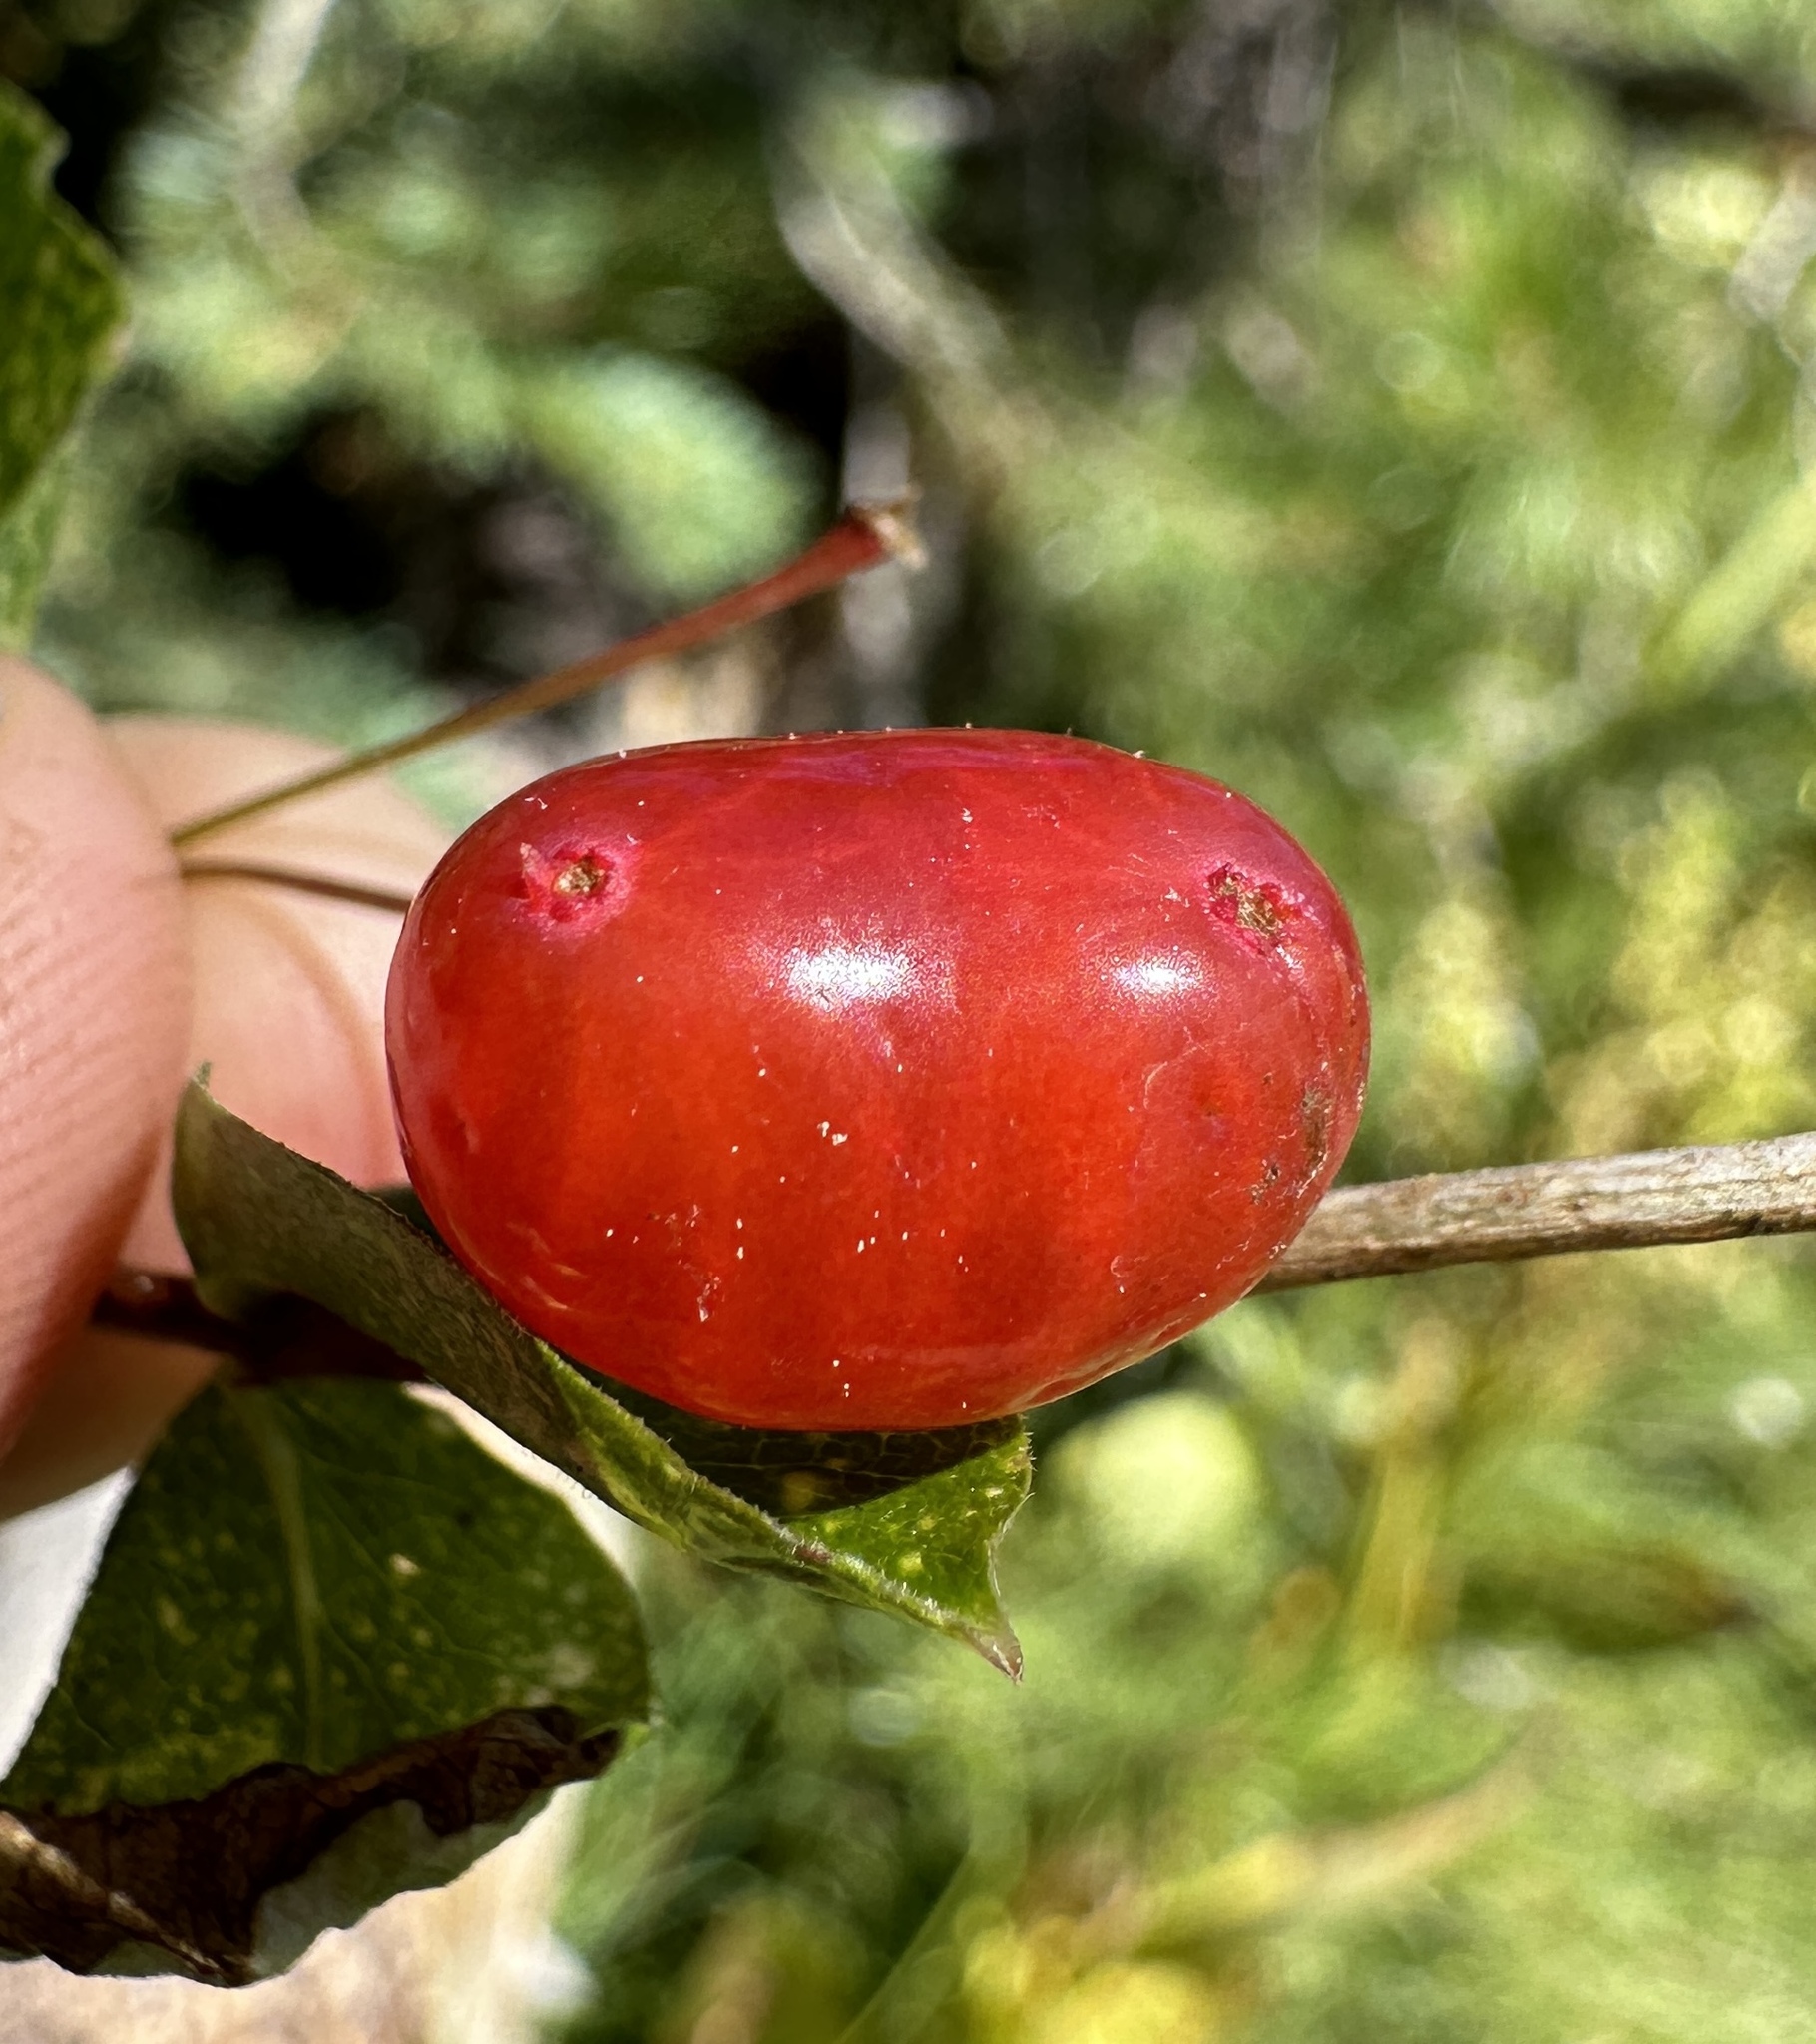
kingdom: Plantae
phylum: Tracheophyta
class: Magnoliopsida
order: Dipsacales
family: Caprifoliaceae
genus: Lonicera
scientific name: Lonicera conjugialis
